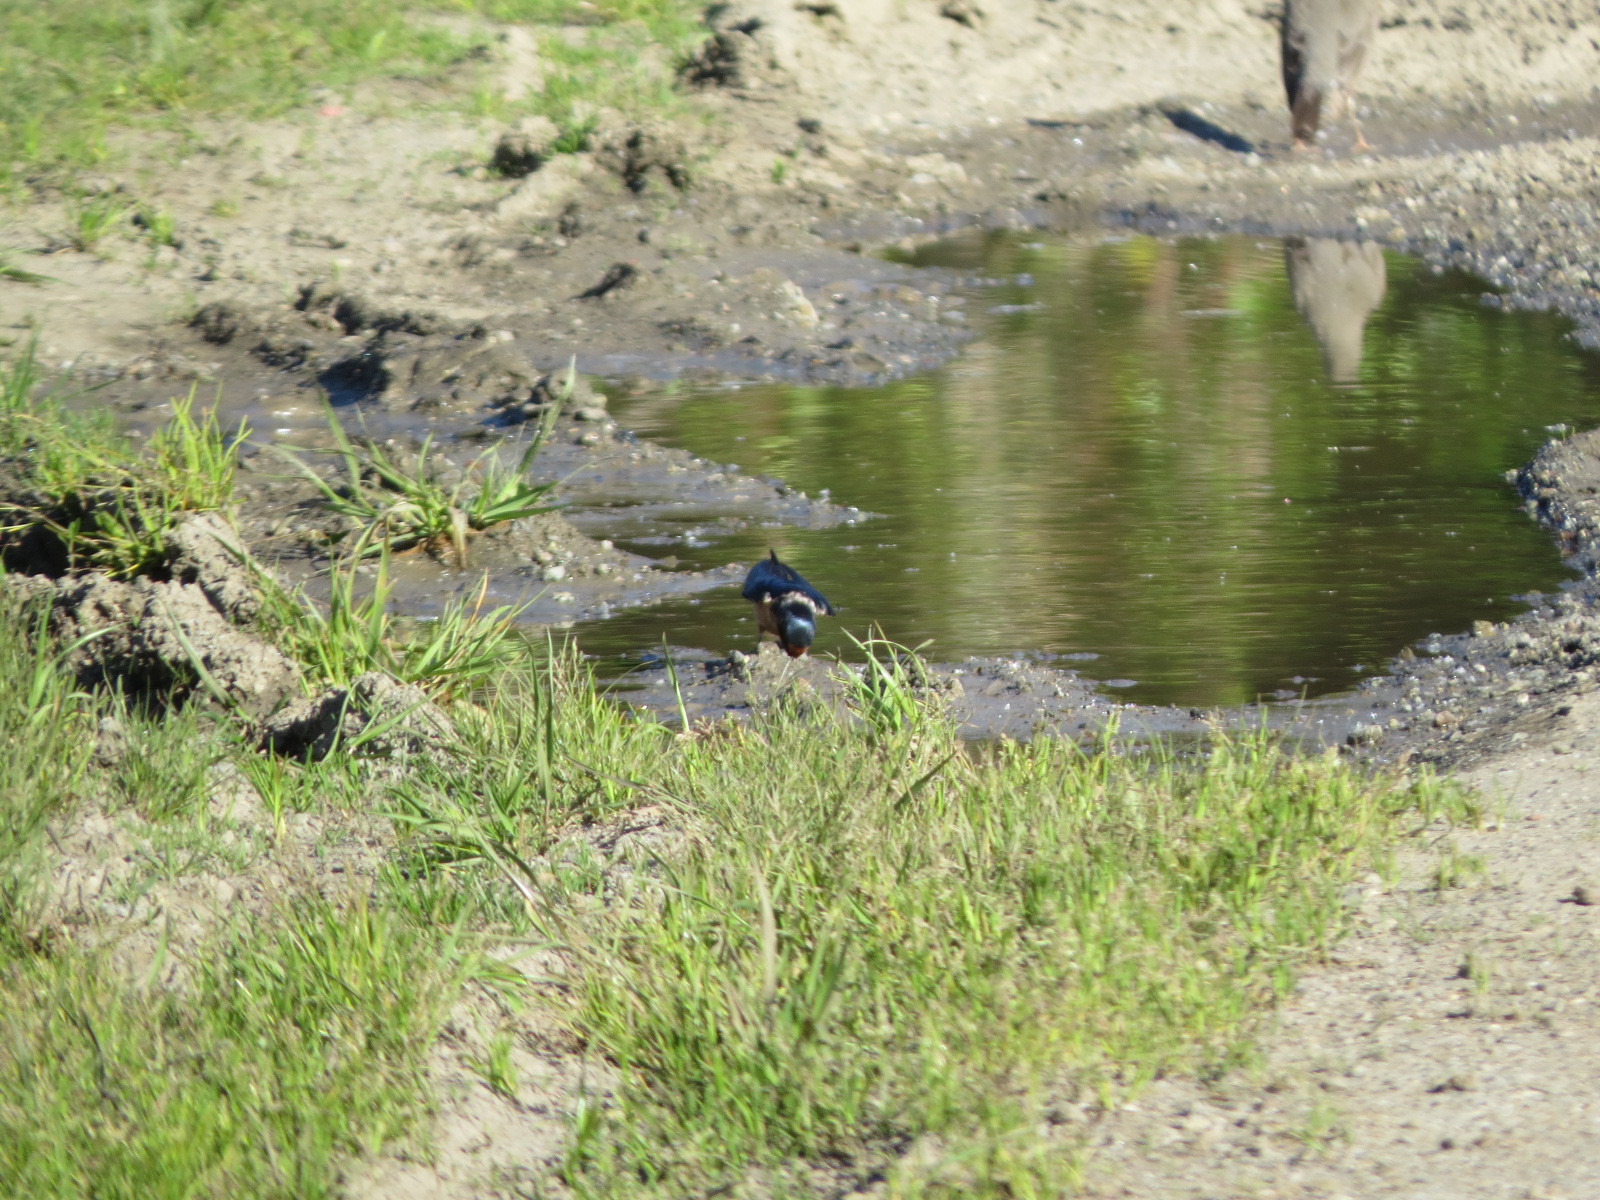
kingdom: Animalia
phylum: Chordata
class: Aves
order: Passeriformes
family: Hirundinidae
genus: Hirundo
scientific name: Hirundo rustica
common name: Barn swallow
